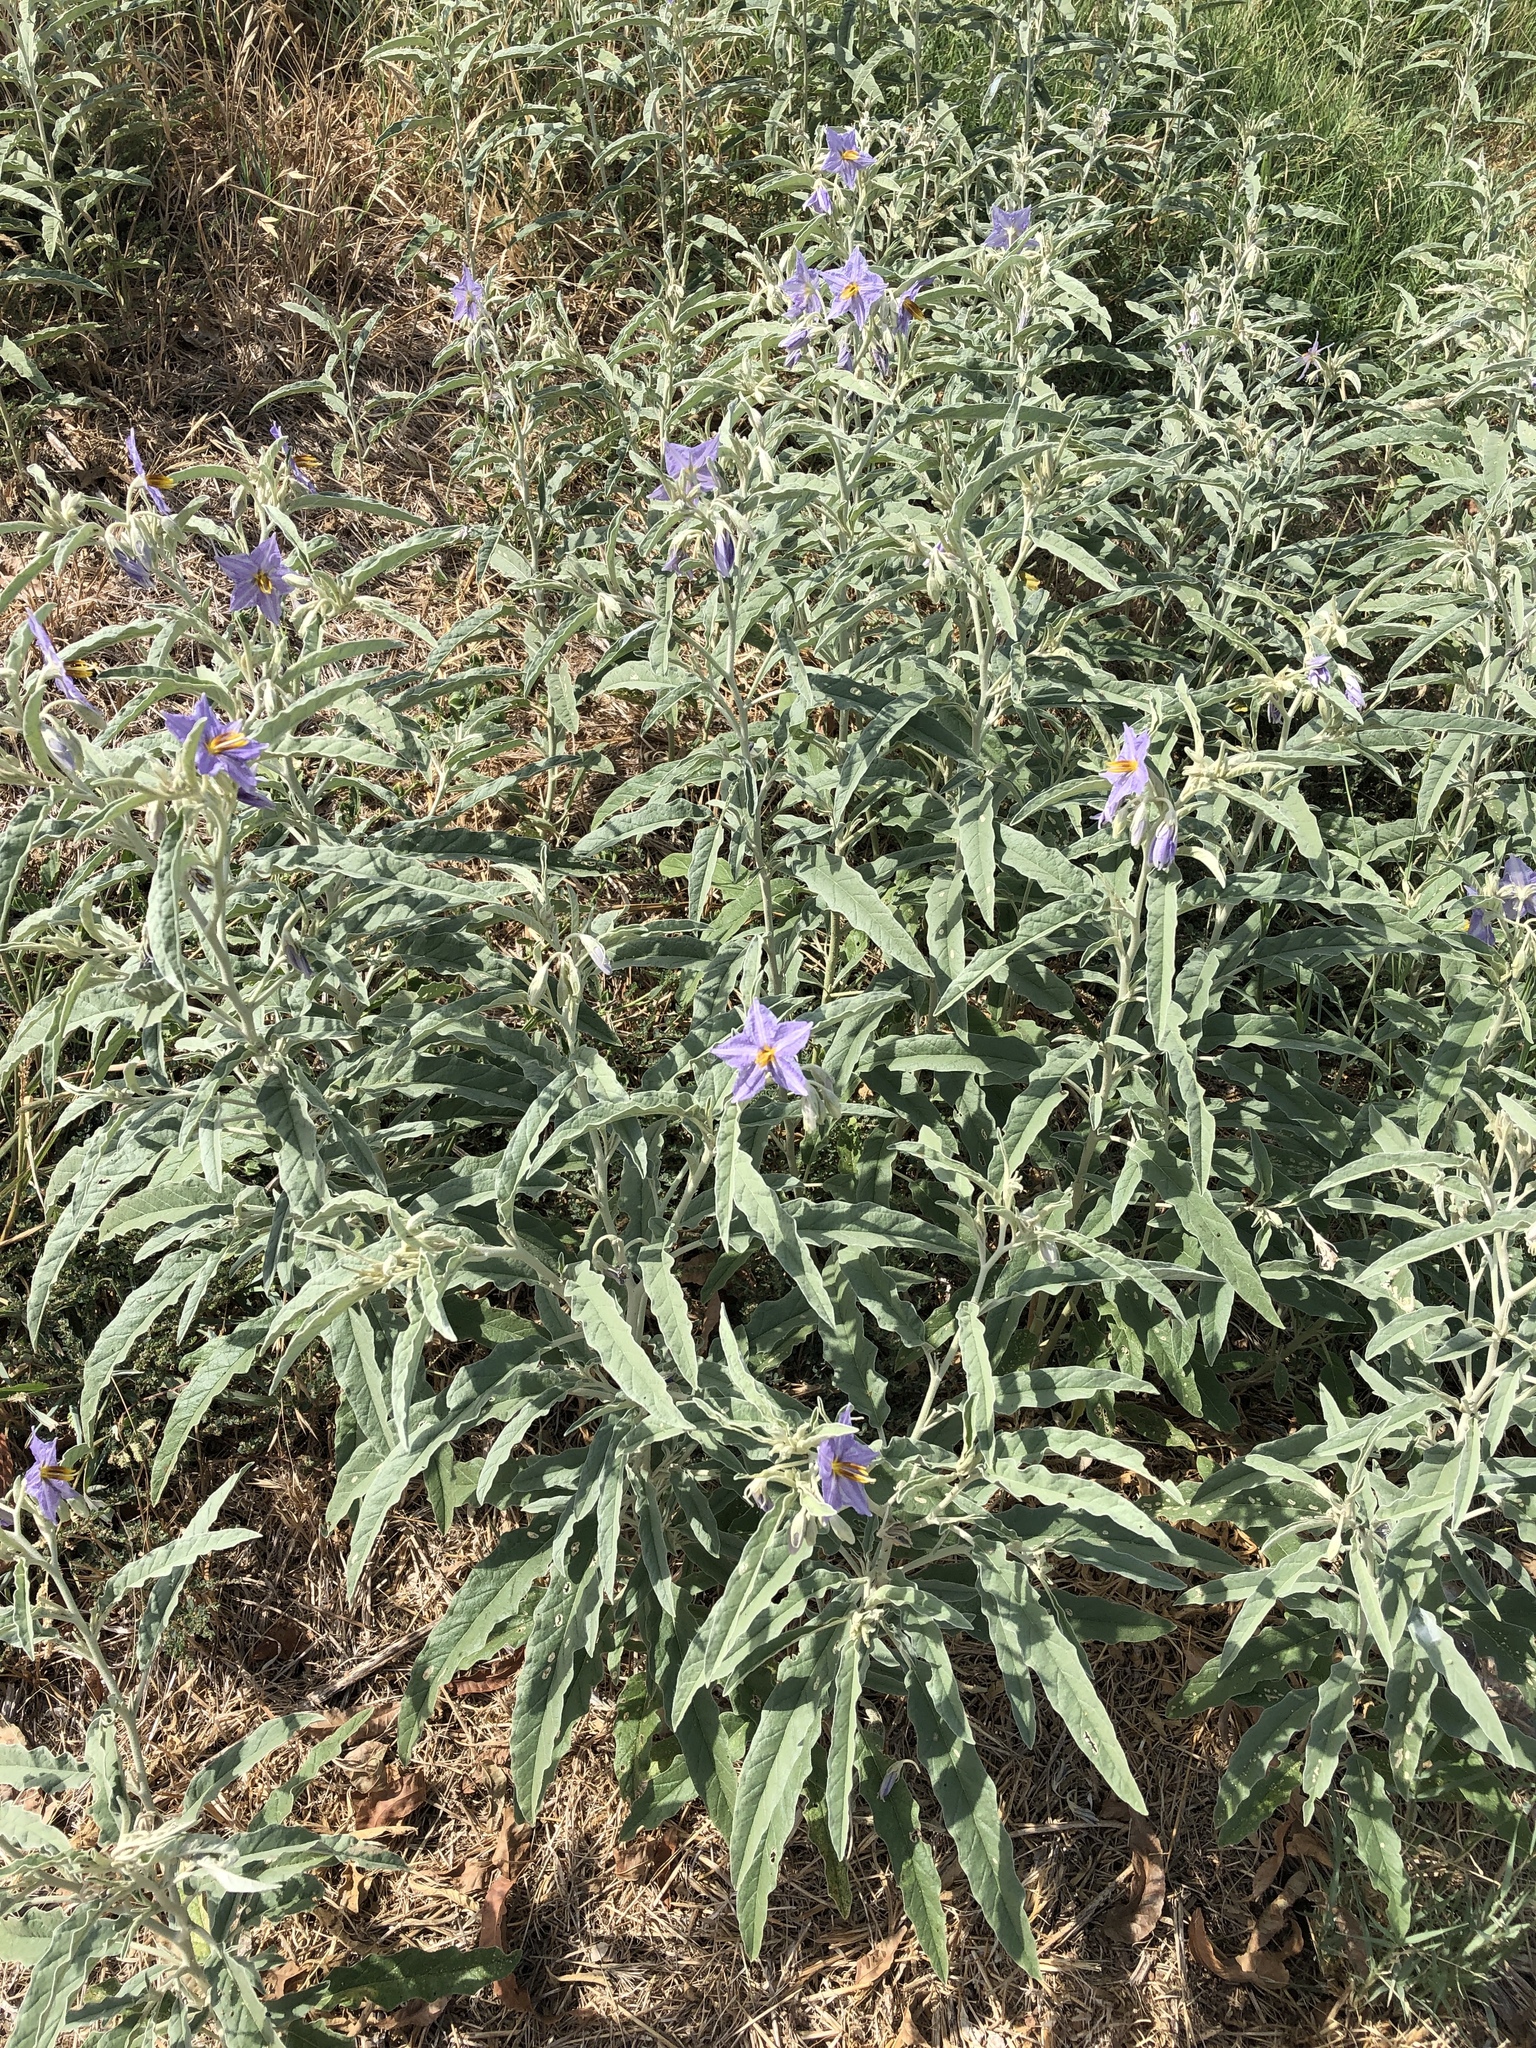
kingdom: Plantae
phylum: Tracheophyta
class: Magnoliopsida
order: Solanales
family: Solanaceae
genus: Solanum
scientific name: Solanum elaeagnifolium
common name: Silverleaf nightshade
